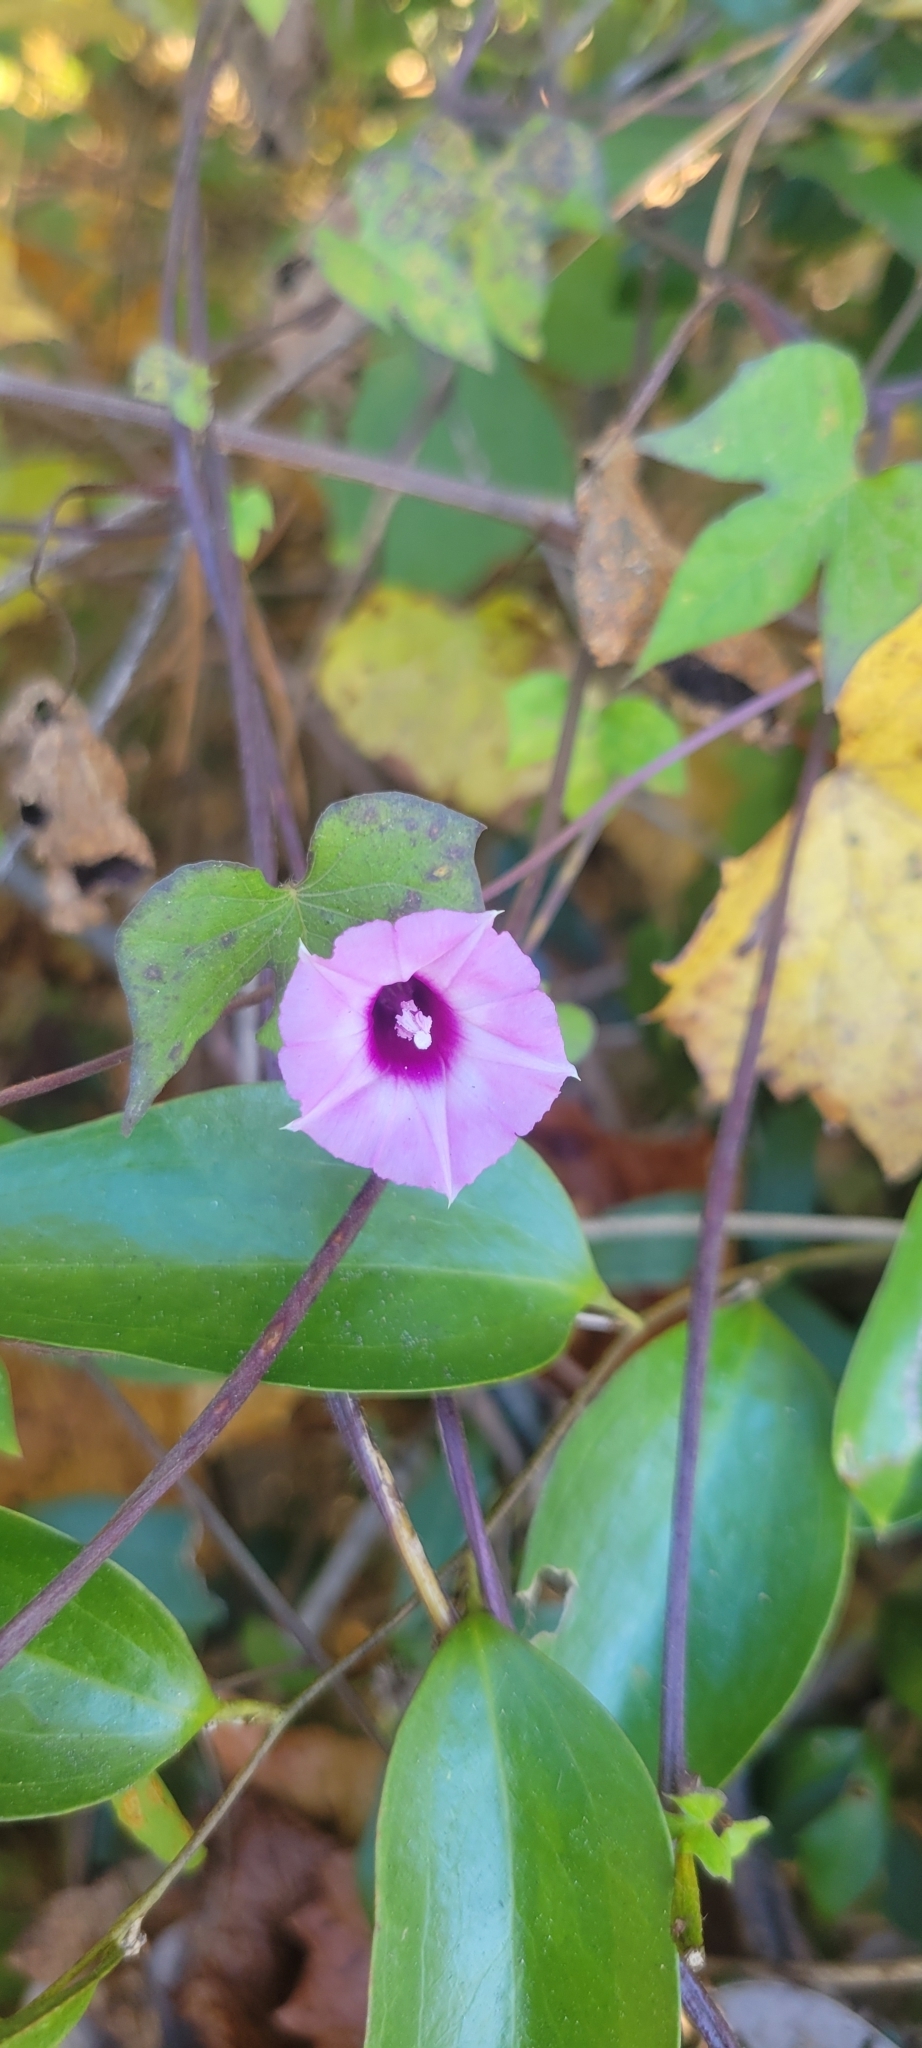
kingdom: Plantae
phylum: Tracheophyta
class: Magnoliopsida
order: Solanales
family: Convolvulaceae
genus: Ipomoea
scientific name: Ipomoea cordatotriloba
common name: Cotton morning glory
